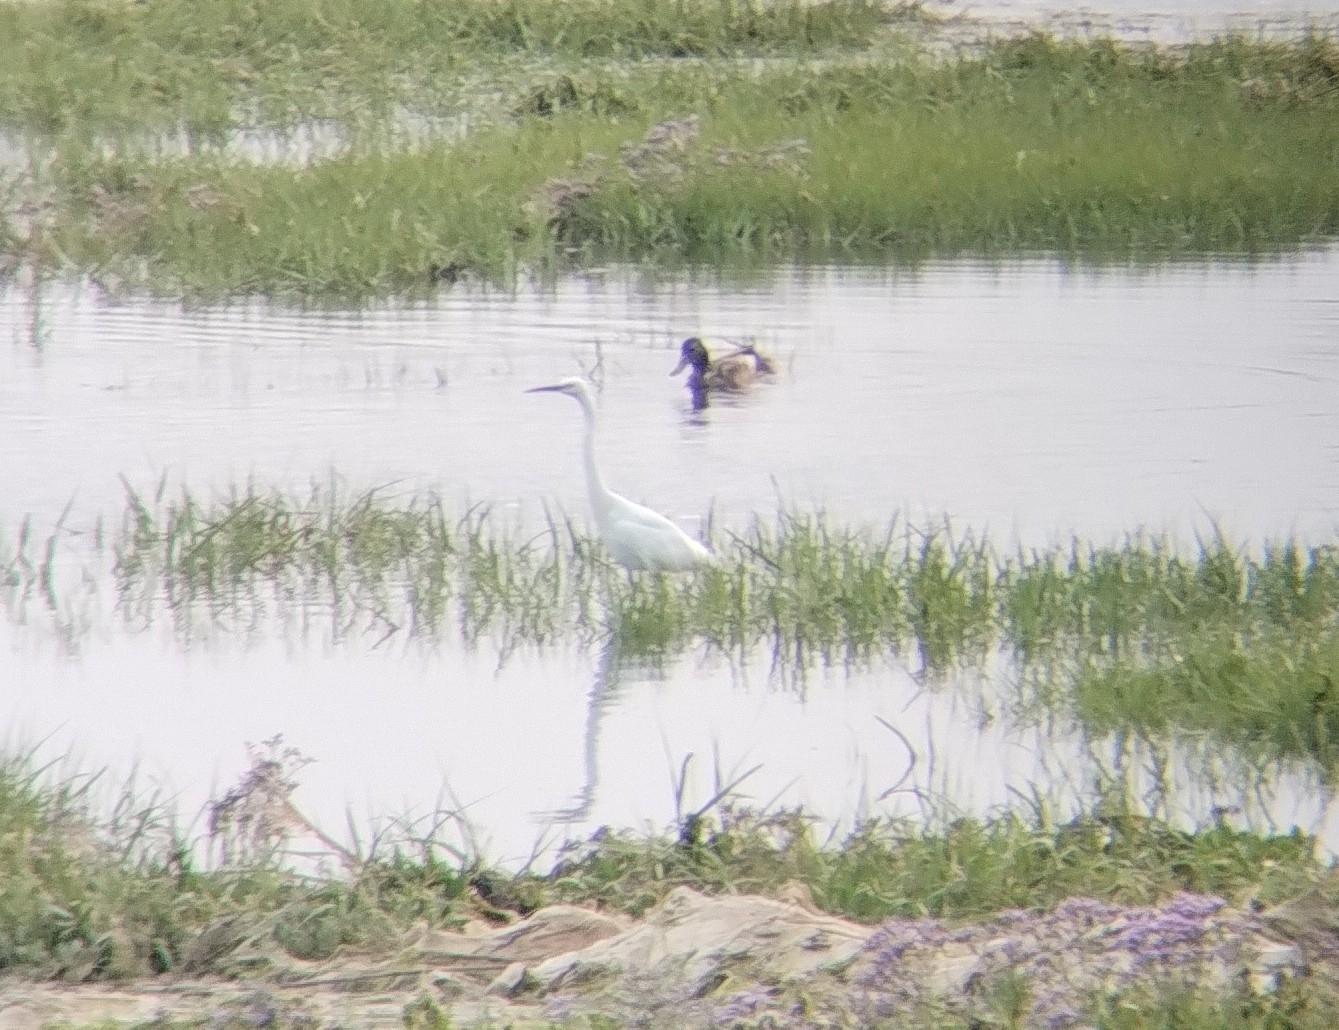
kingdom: Animalia
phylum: Chordata
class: Aves
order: Pelecaniformes
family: Ardeidae
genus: Egretta
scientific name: Egretta garzetta
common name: Little egret
